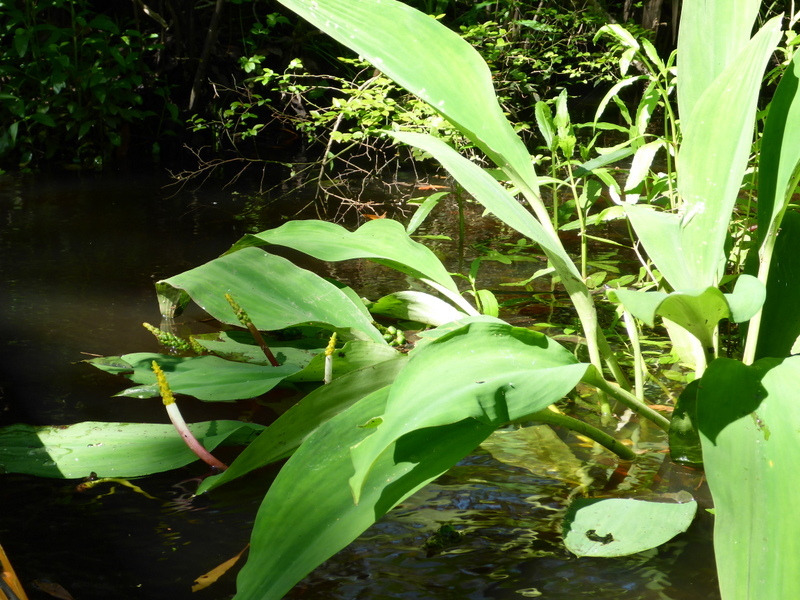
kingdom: Plantae
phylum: Tracheophyta
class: Liliopsida
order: Alismatales
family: Araceae
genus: Orontium
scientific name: Orontium aquaticum
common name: Golden-club
